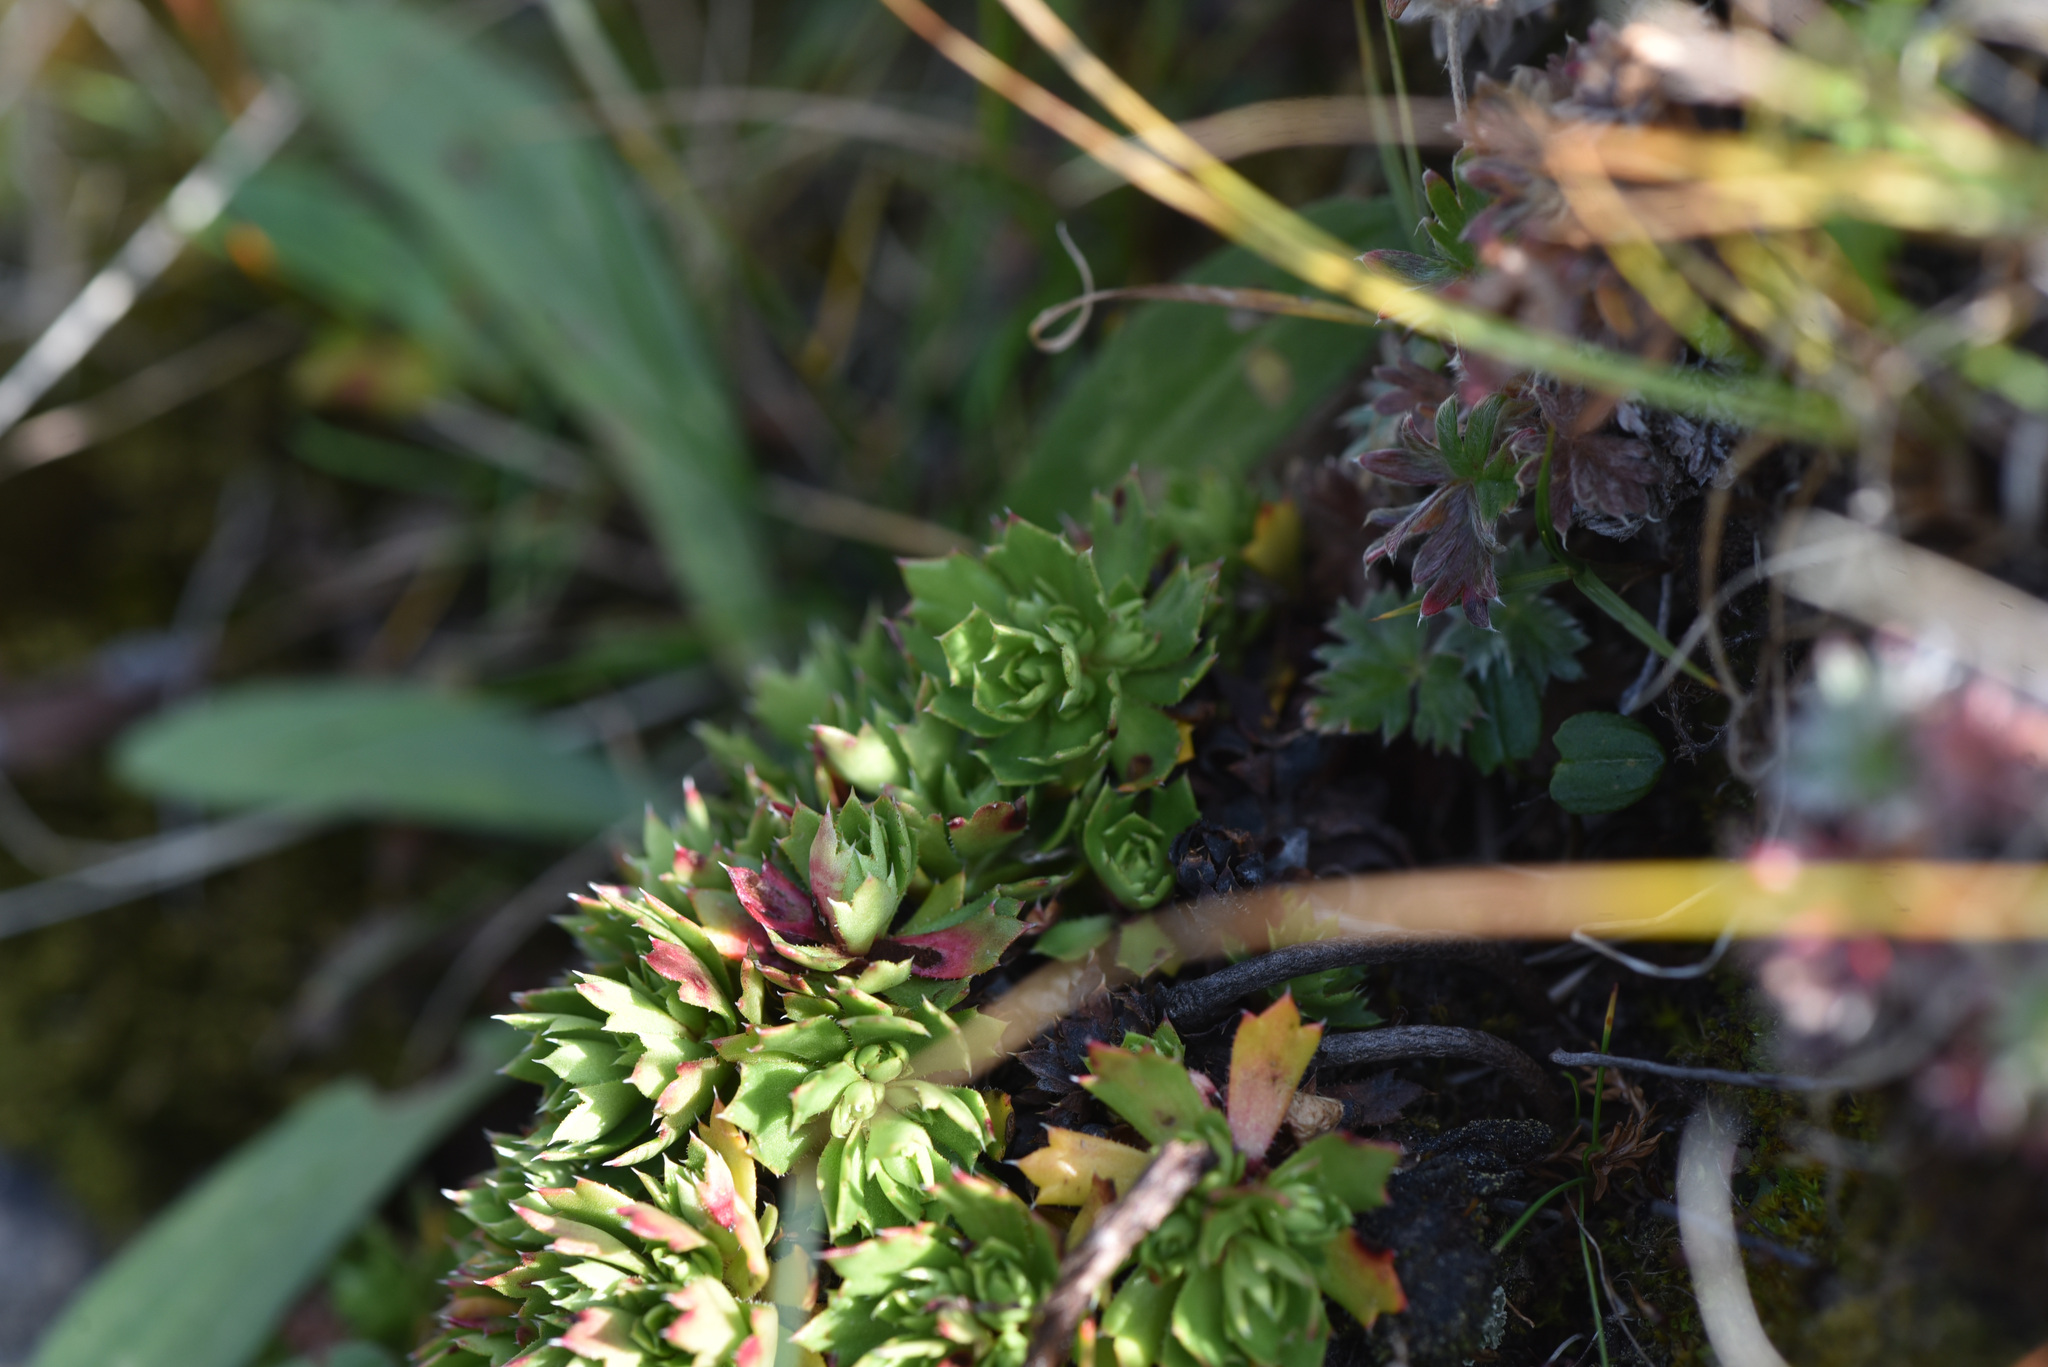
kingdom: Plantae
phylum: Tracheophyta
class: Magnoliopsida
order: Saxifragales
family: Saxifragaceae
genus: Saxifraga
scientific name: Saxifraga tricuspidata
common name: Prickly saxifrage
